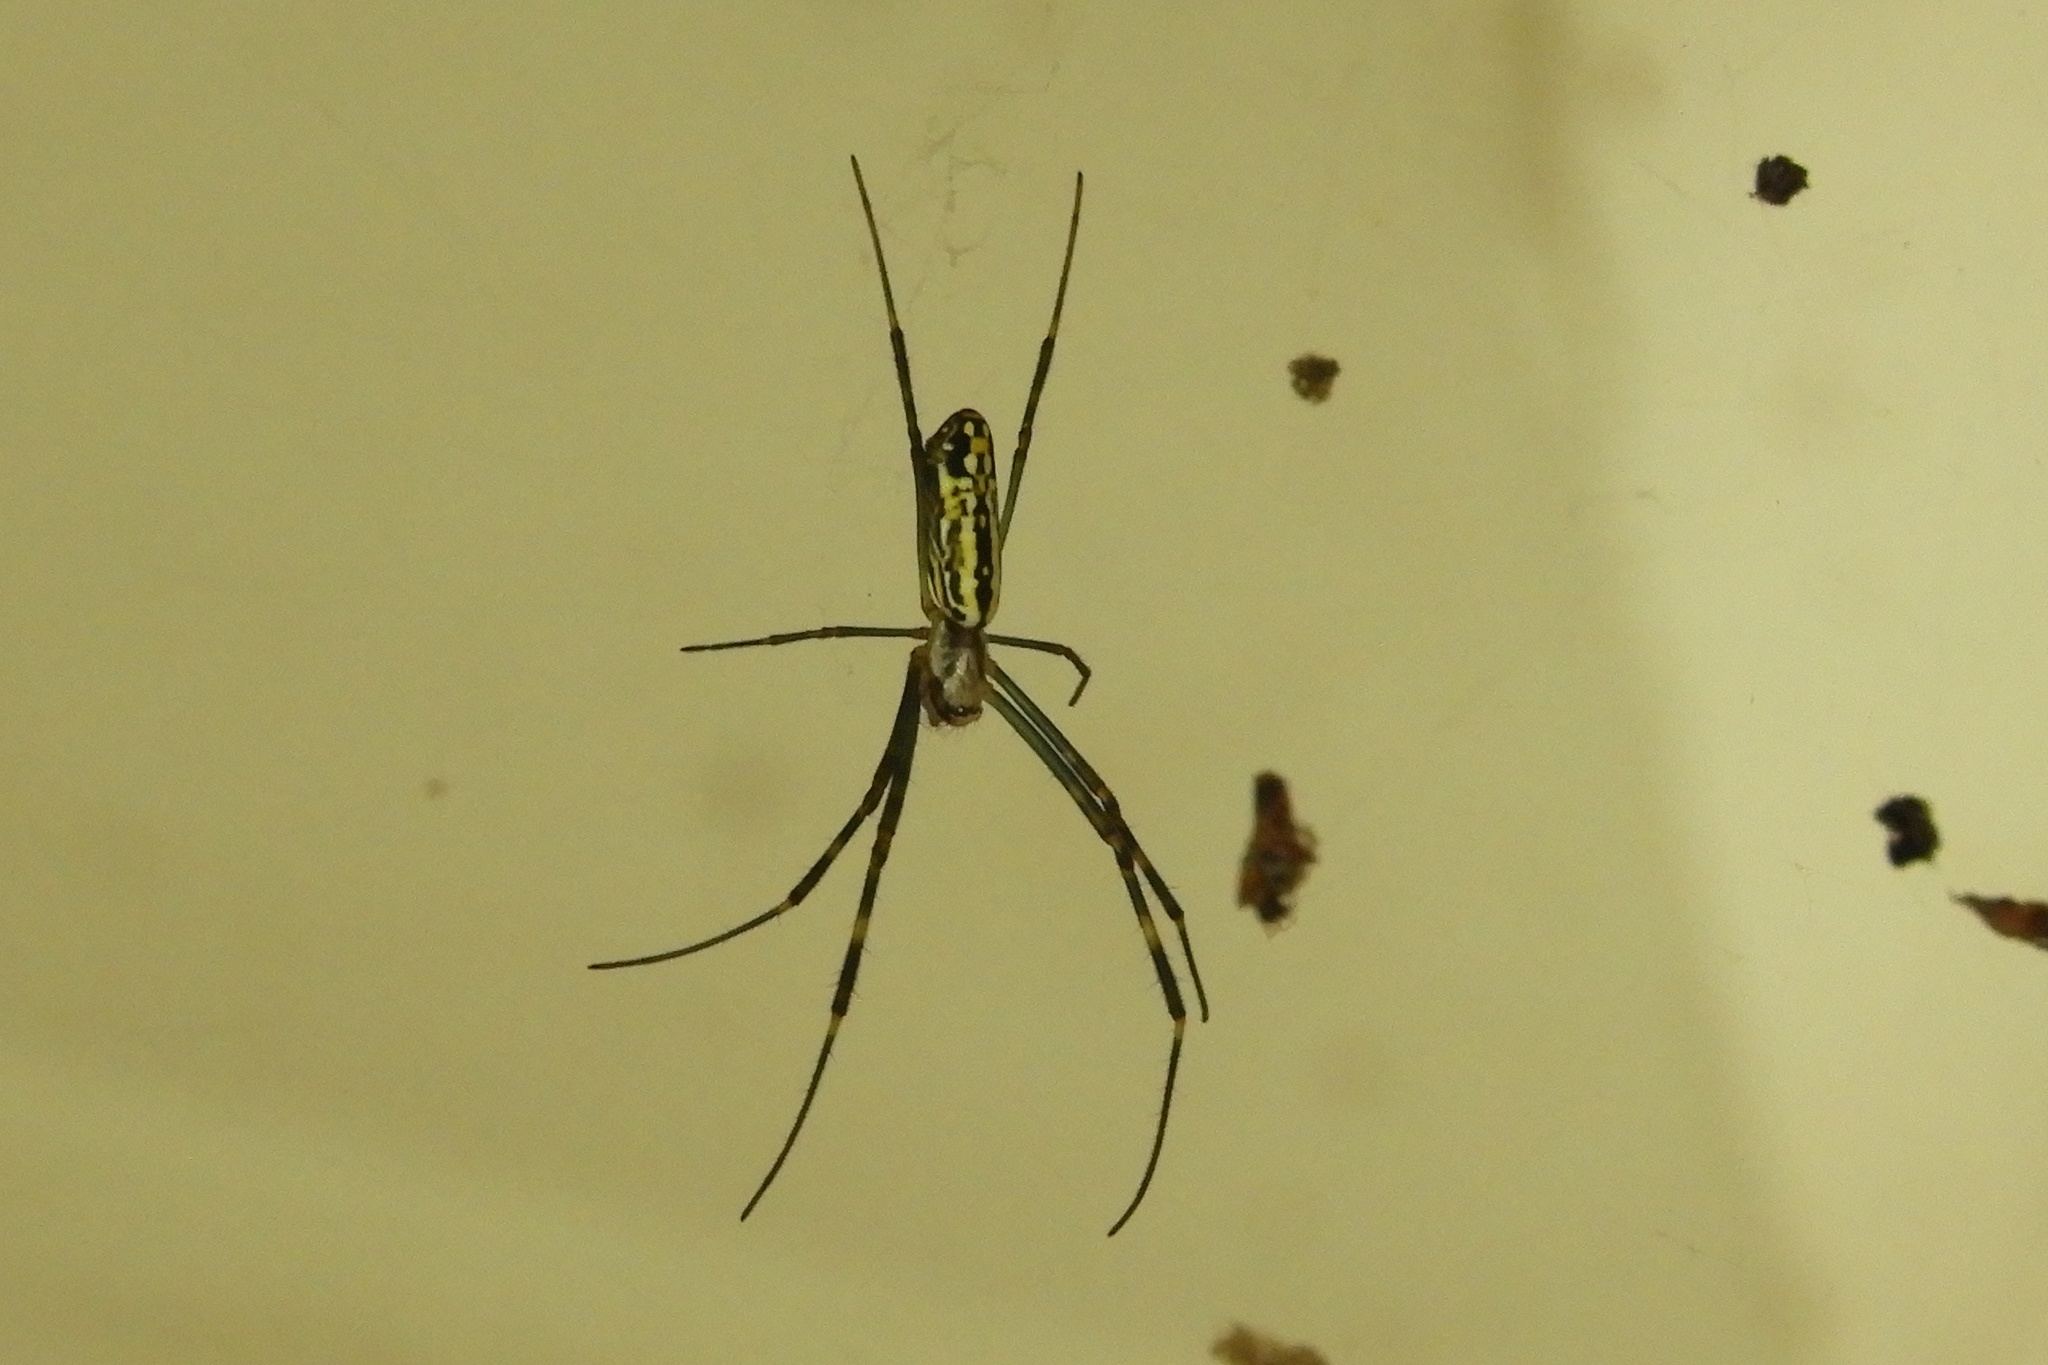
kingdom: Animalia
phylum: Arthropoda
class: Arachnida
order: Araneae
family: Araneidae
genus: Trichonephila
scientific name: Trichonephila clavata
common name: Jorō spider
